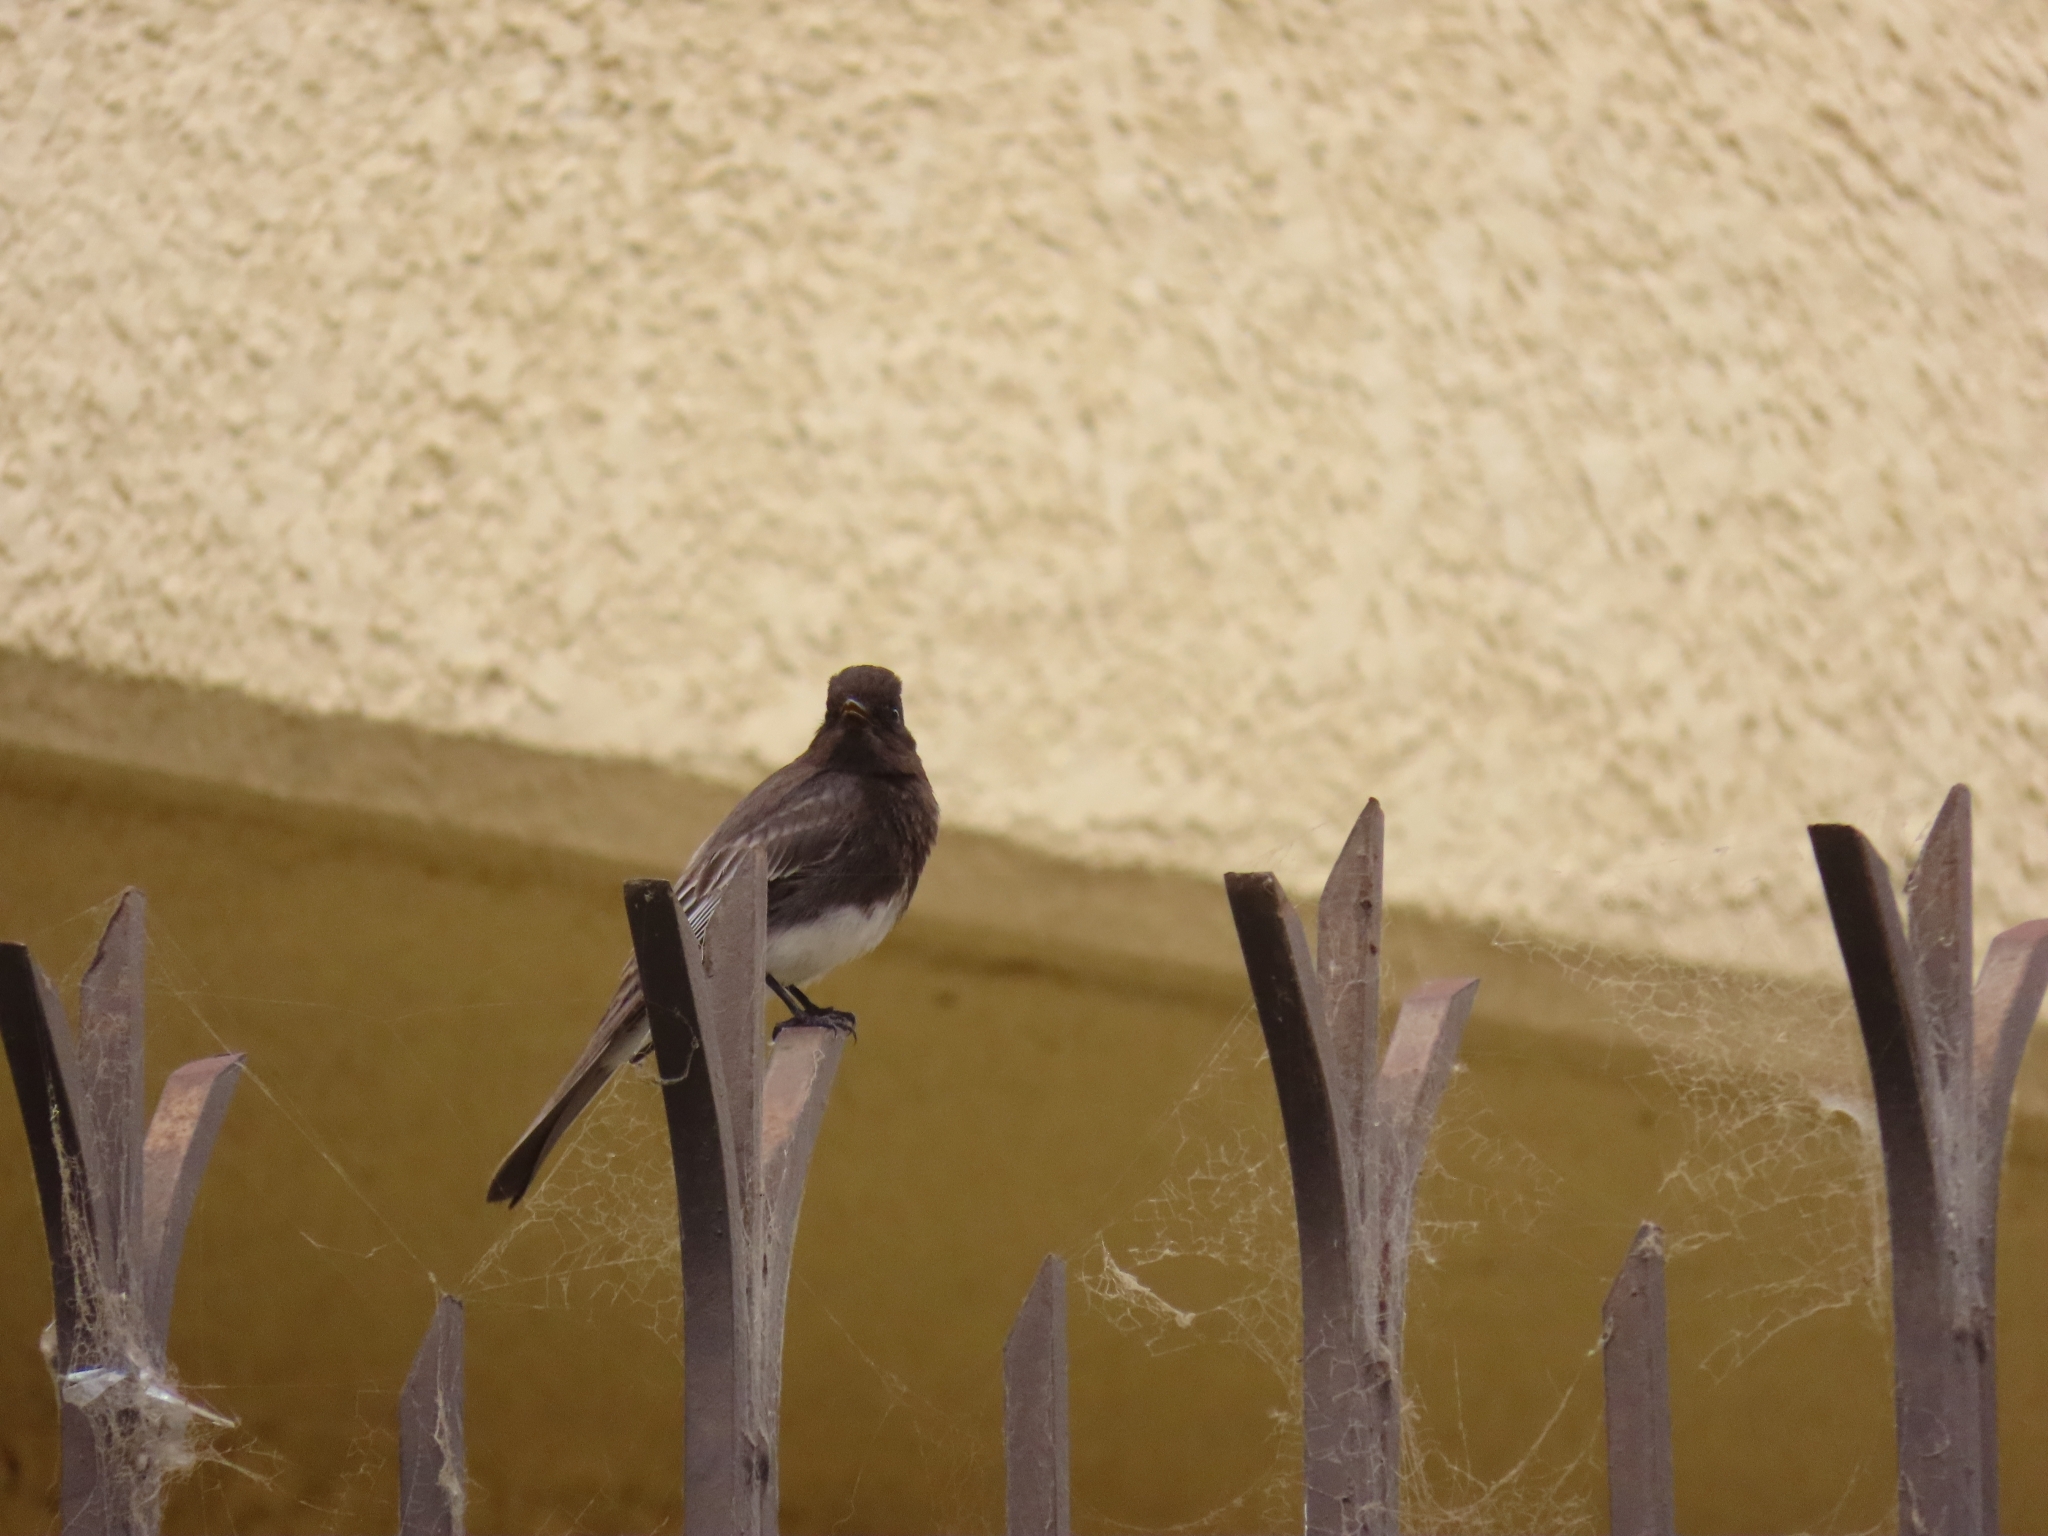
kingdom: Animalia
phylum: Chordata
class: Aves
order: Passeriformes
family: Tyrannidae
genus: Sayornis
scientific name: Sayornis nigricans
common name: Black phoebe
